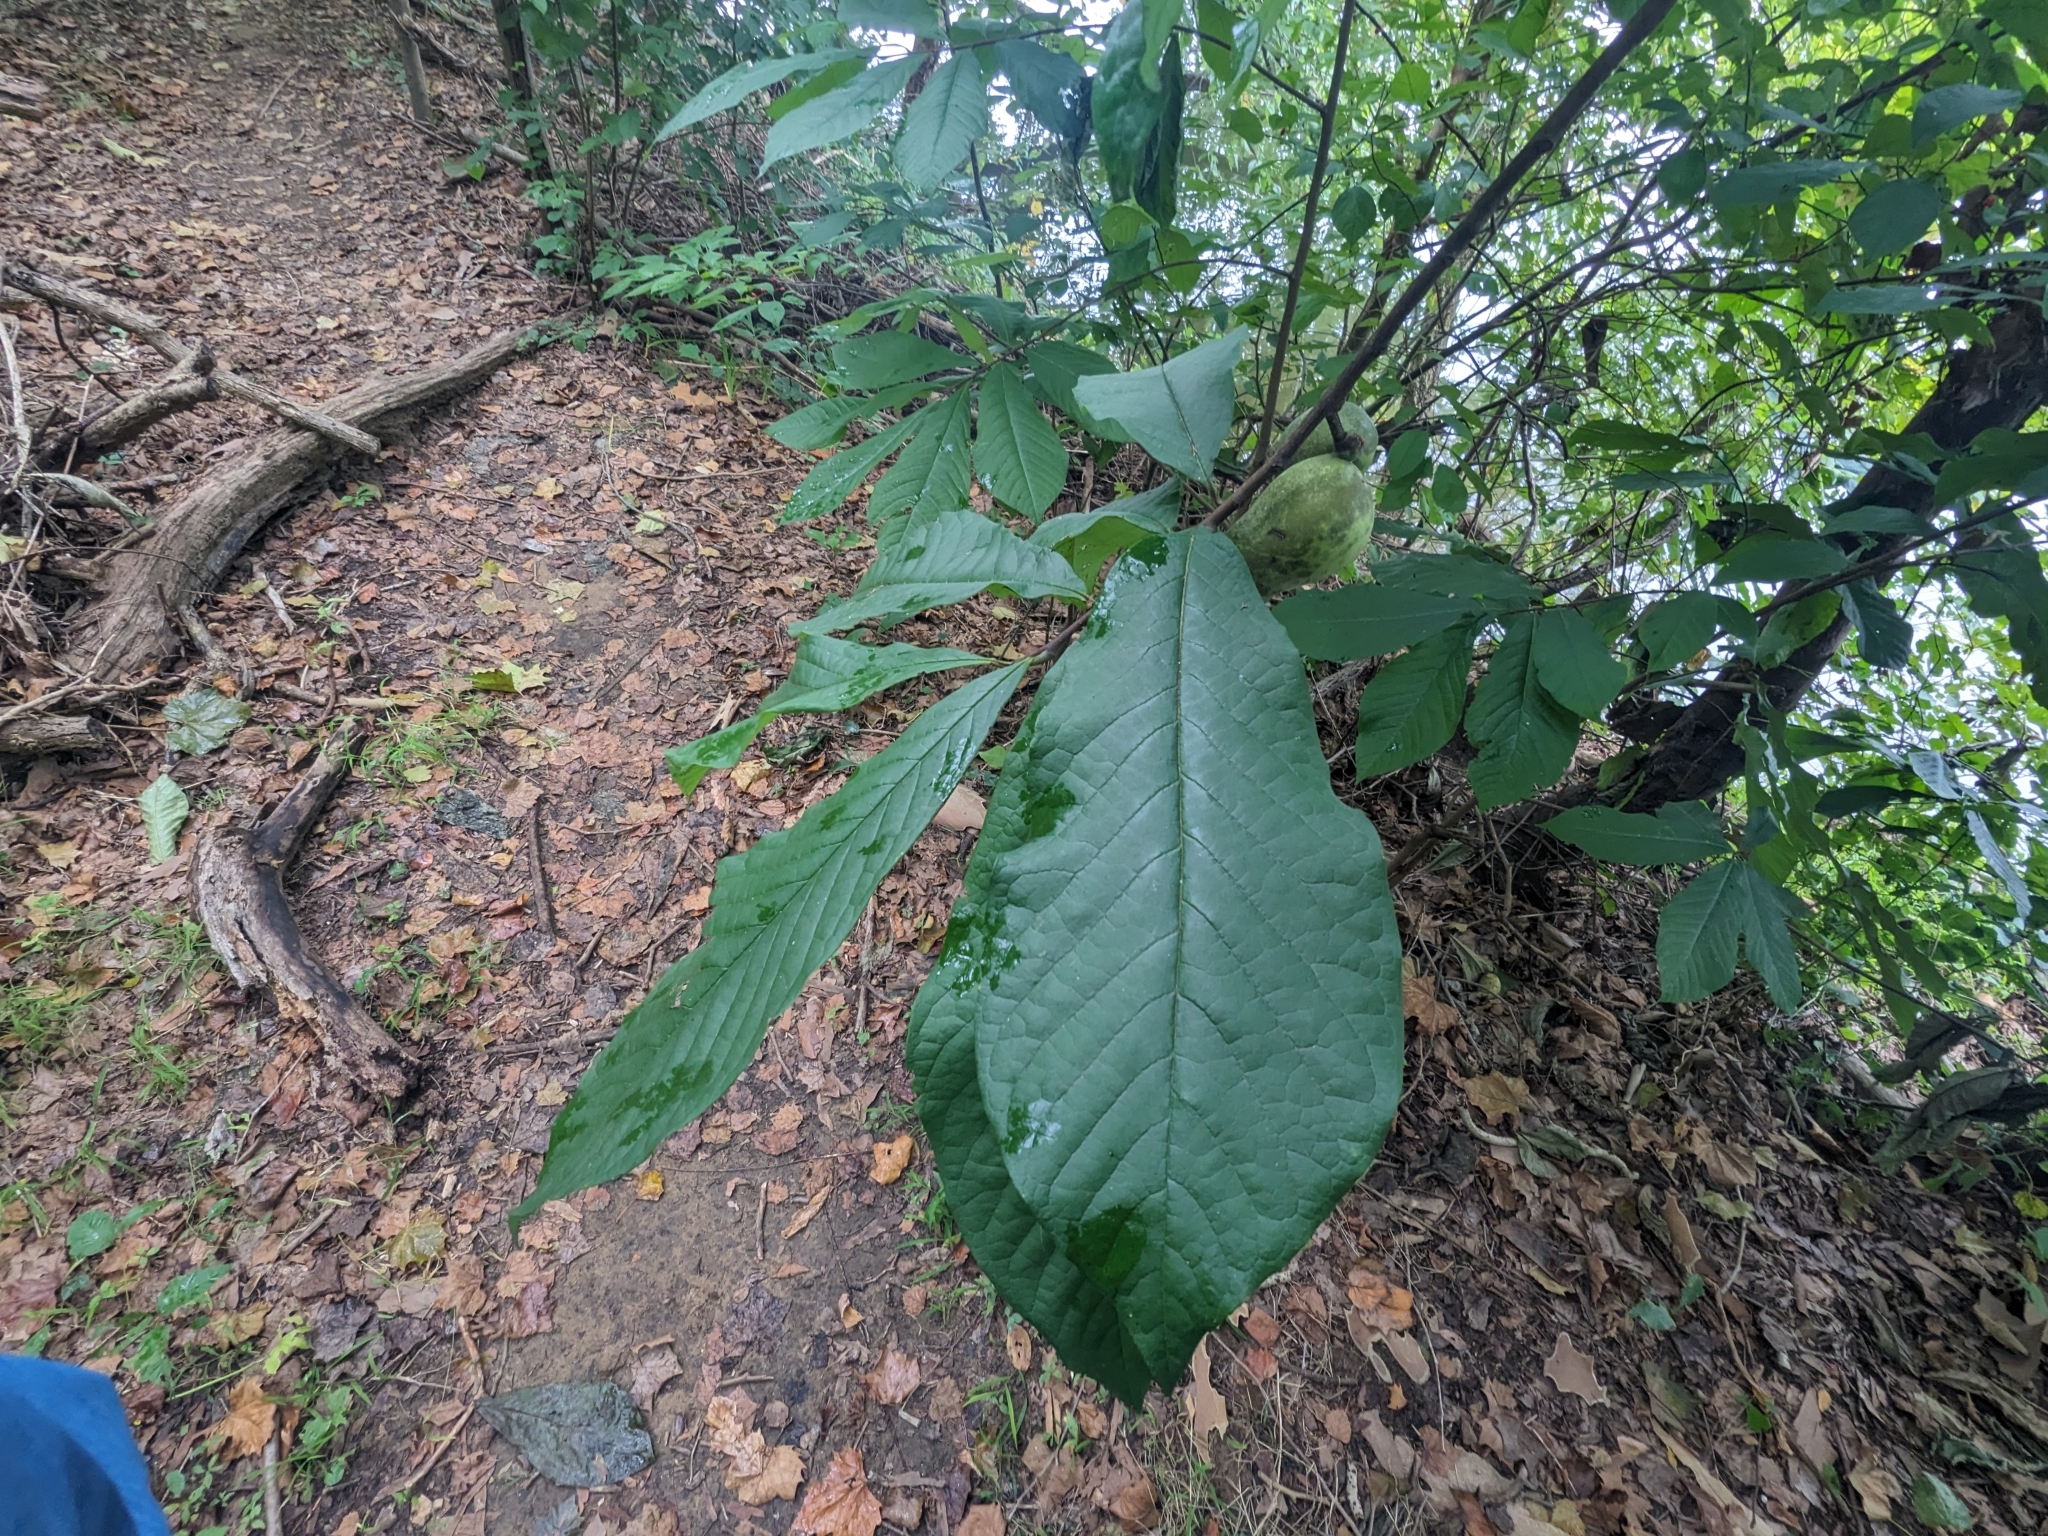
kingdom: Plantae
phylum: Tracheophyta
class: Magnoliopsida
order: Magnoliales
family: Annonaceae
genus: Asimina
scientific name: Asimina triloba
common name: Dog-banana
